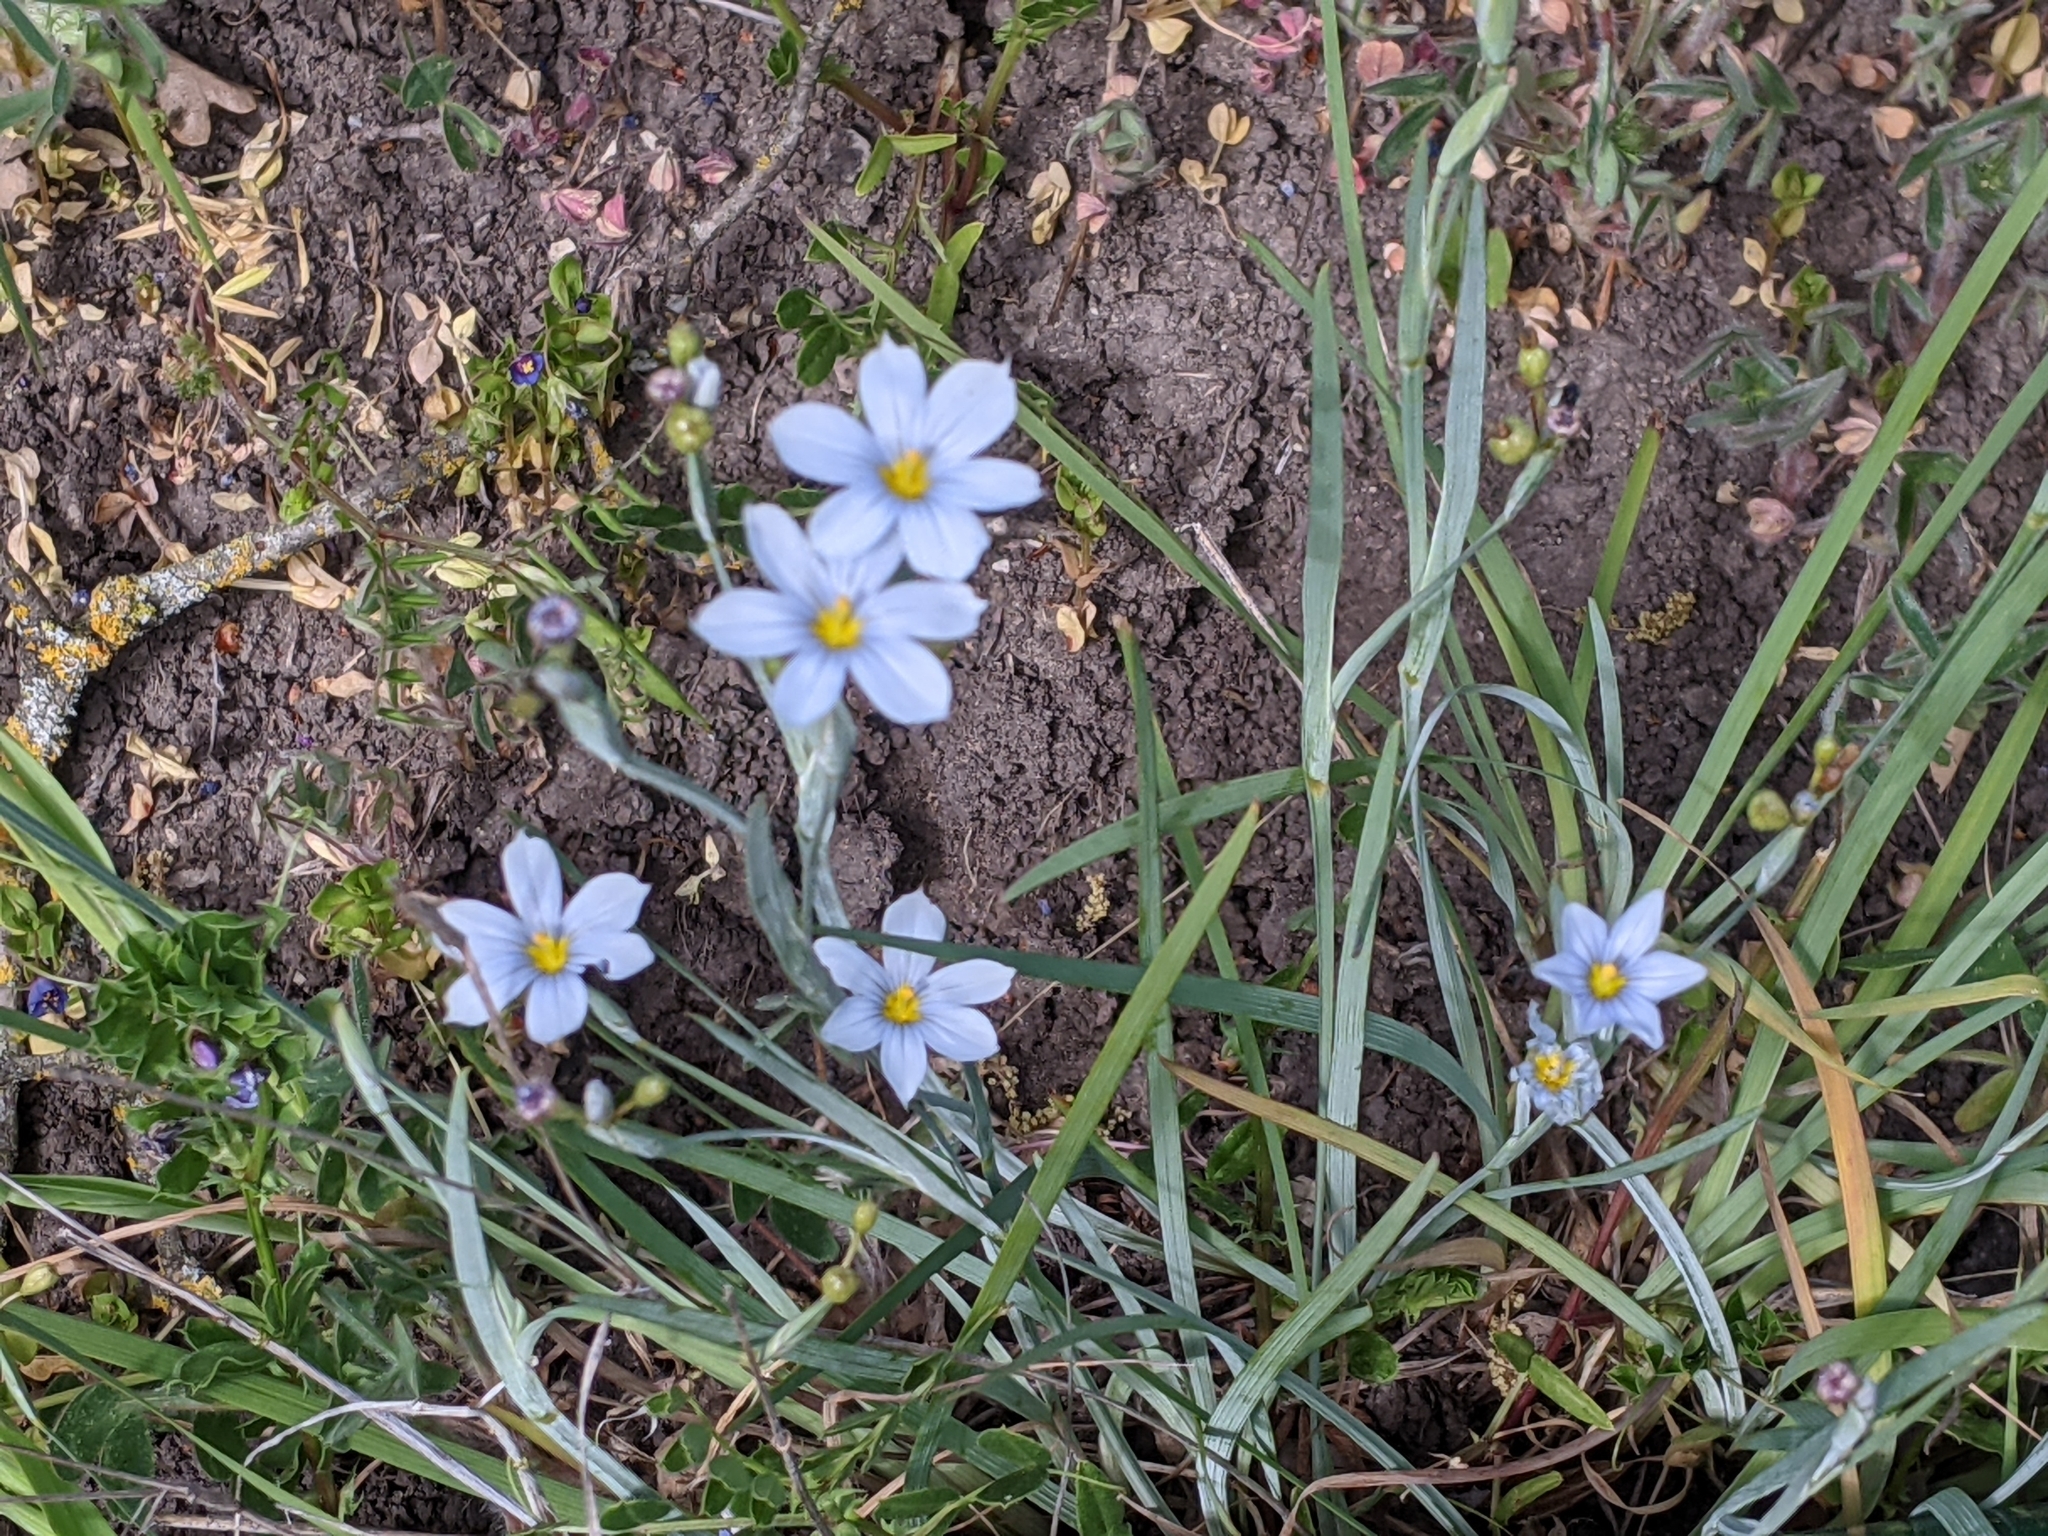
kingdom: Plantae
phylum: Tracheophyta
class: Liliopsida
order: Asparagales
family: Iridaceae
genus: Sisyrinchium
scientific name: Sisyrinchium bellum
